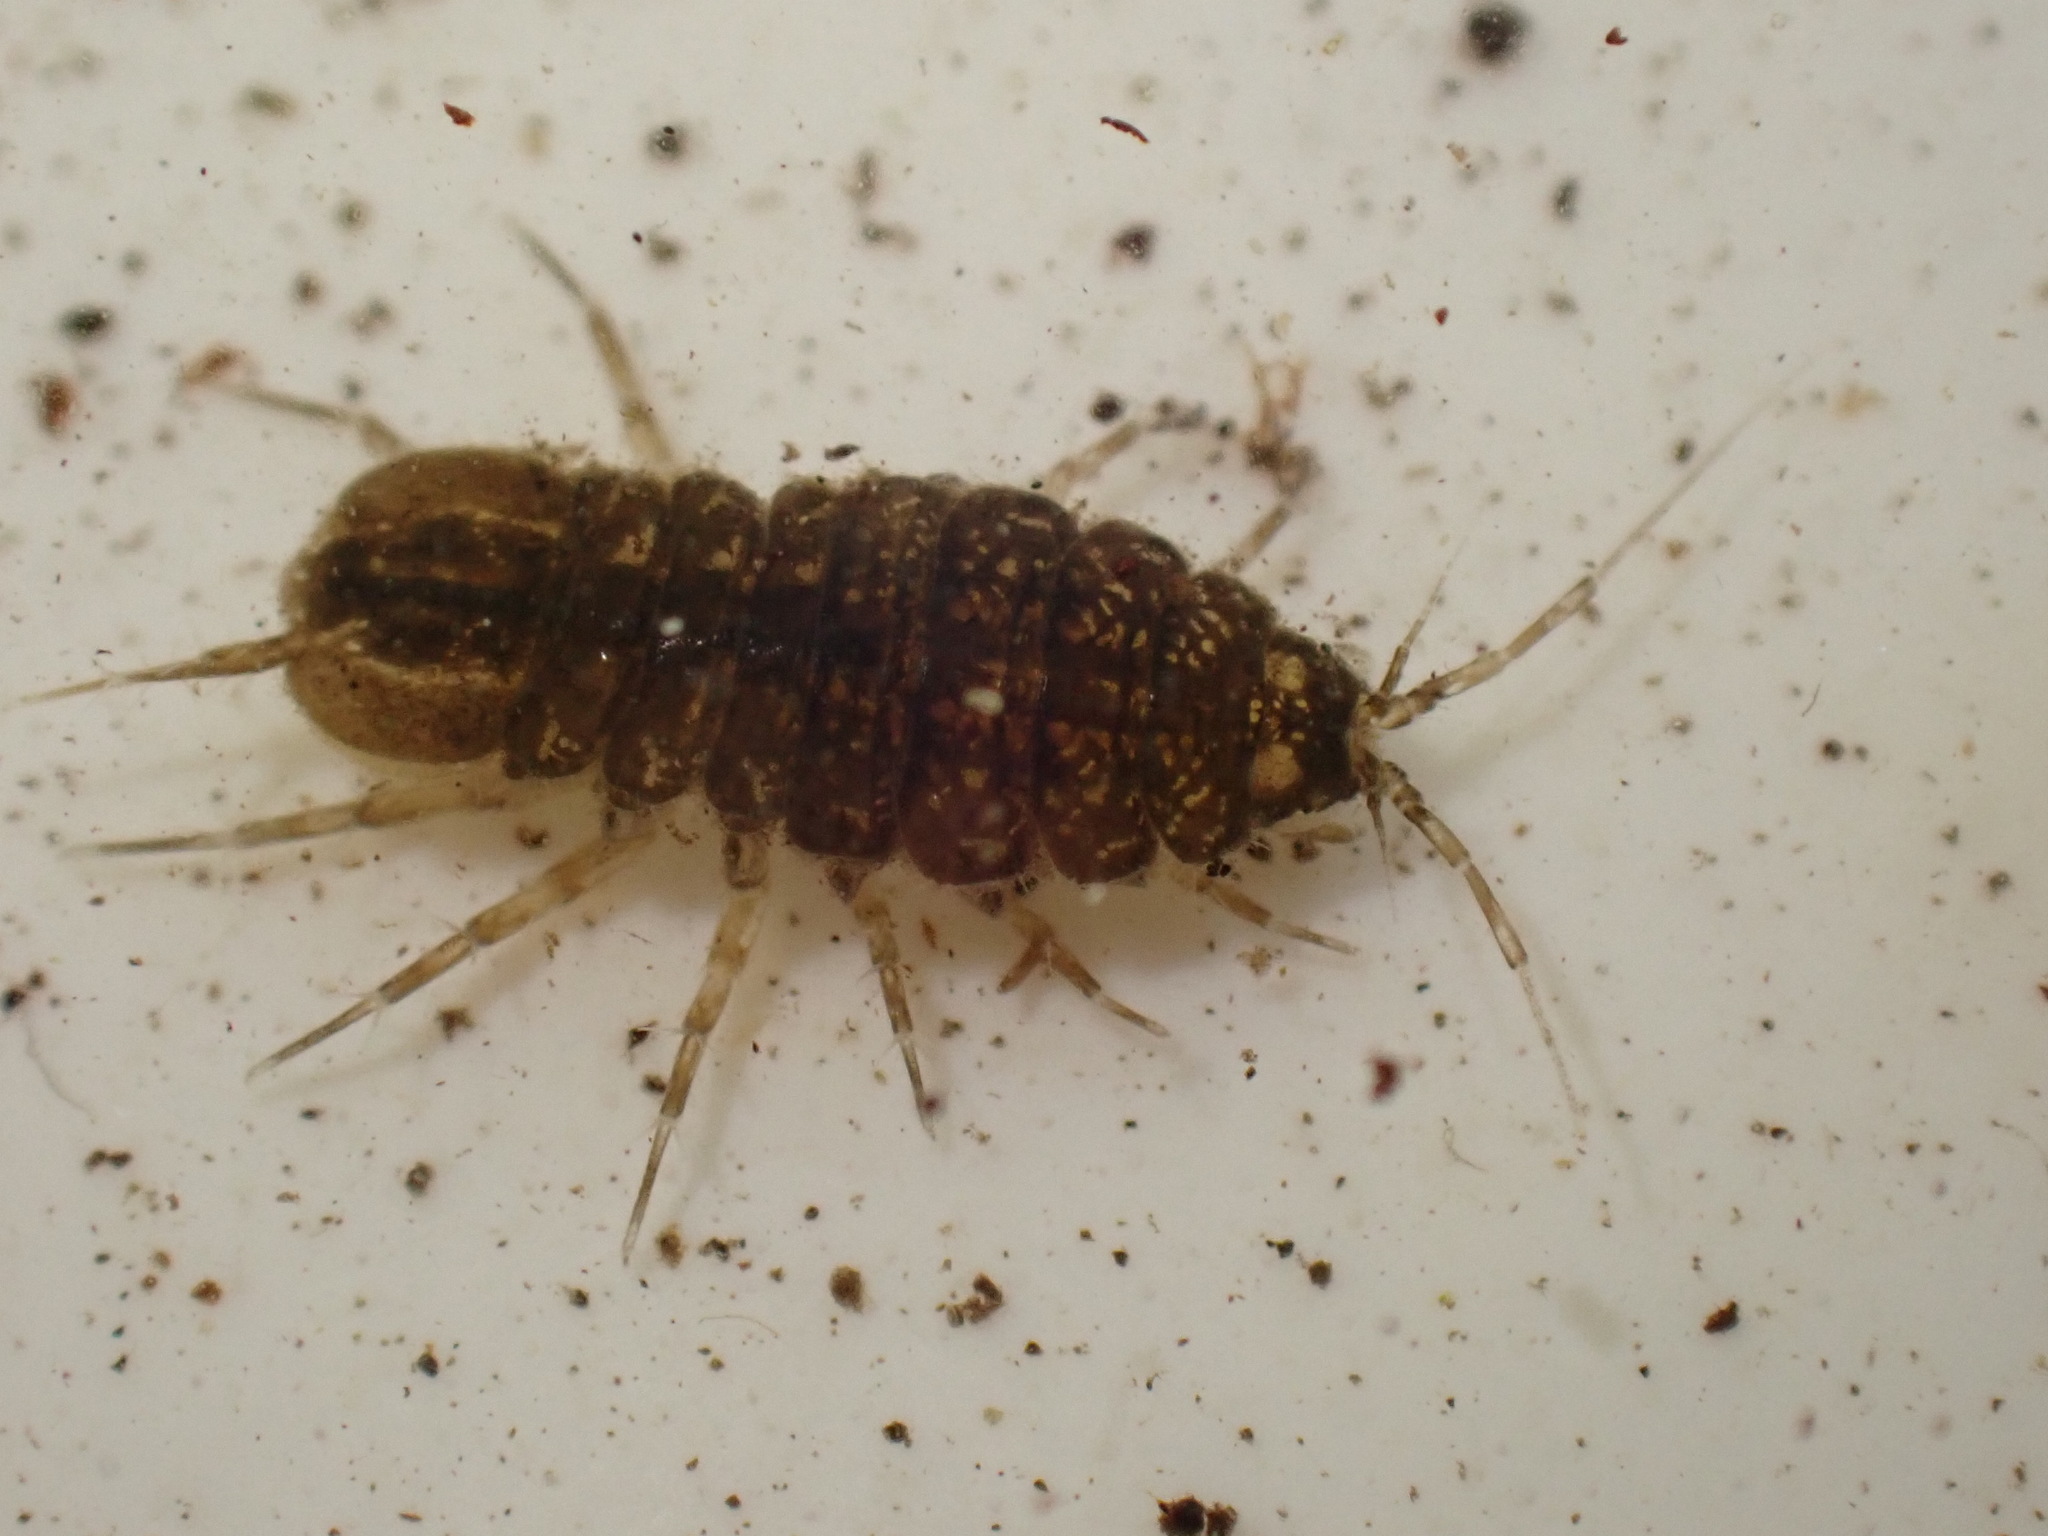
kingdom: Animalia
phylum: Arthropoda
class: Malacostraca
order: Isopoda
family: Asellidae
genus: Asellus
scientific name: Asellus aquaticus
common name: Water hog lice/slaters
